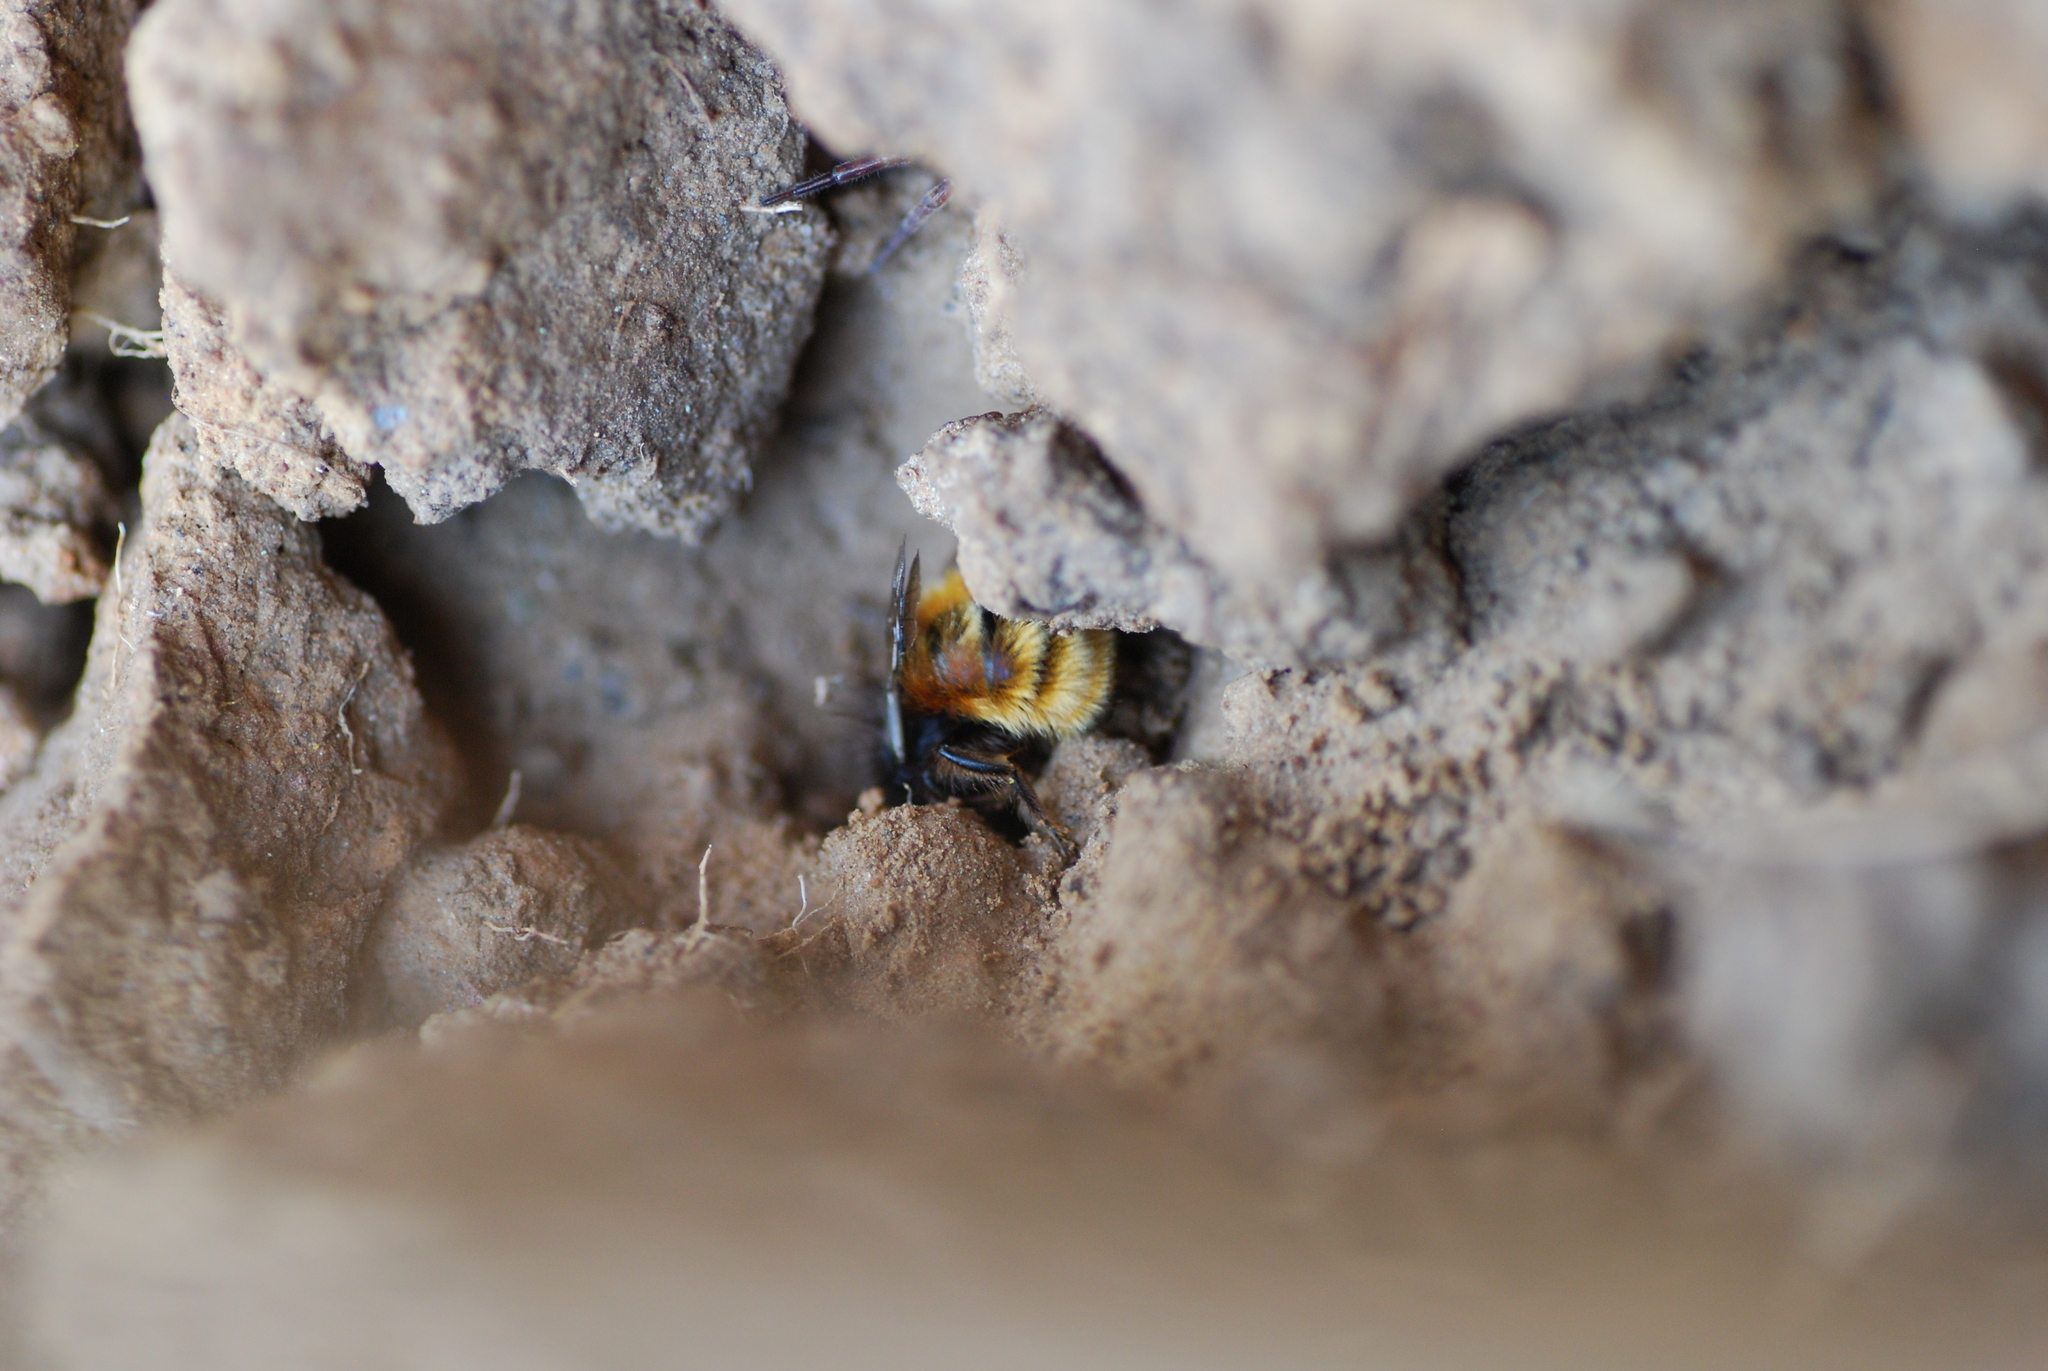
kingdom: Animalia
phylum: Arthropoda
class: Insecta
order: Hymenoptera
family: Megachilidae
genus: Osmia
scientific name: Osmia cornuta
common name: Mason bee
